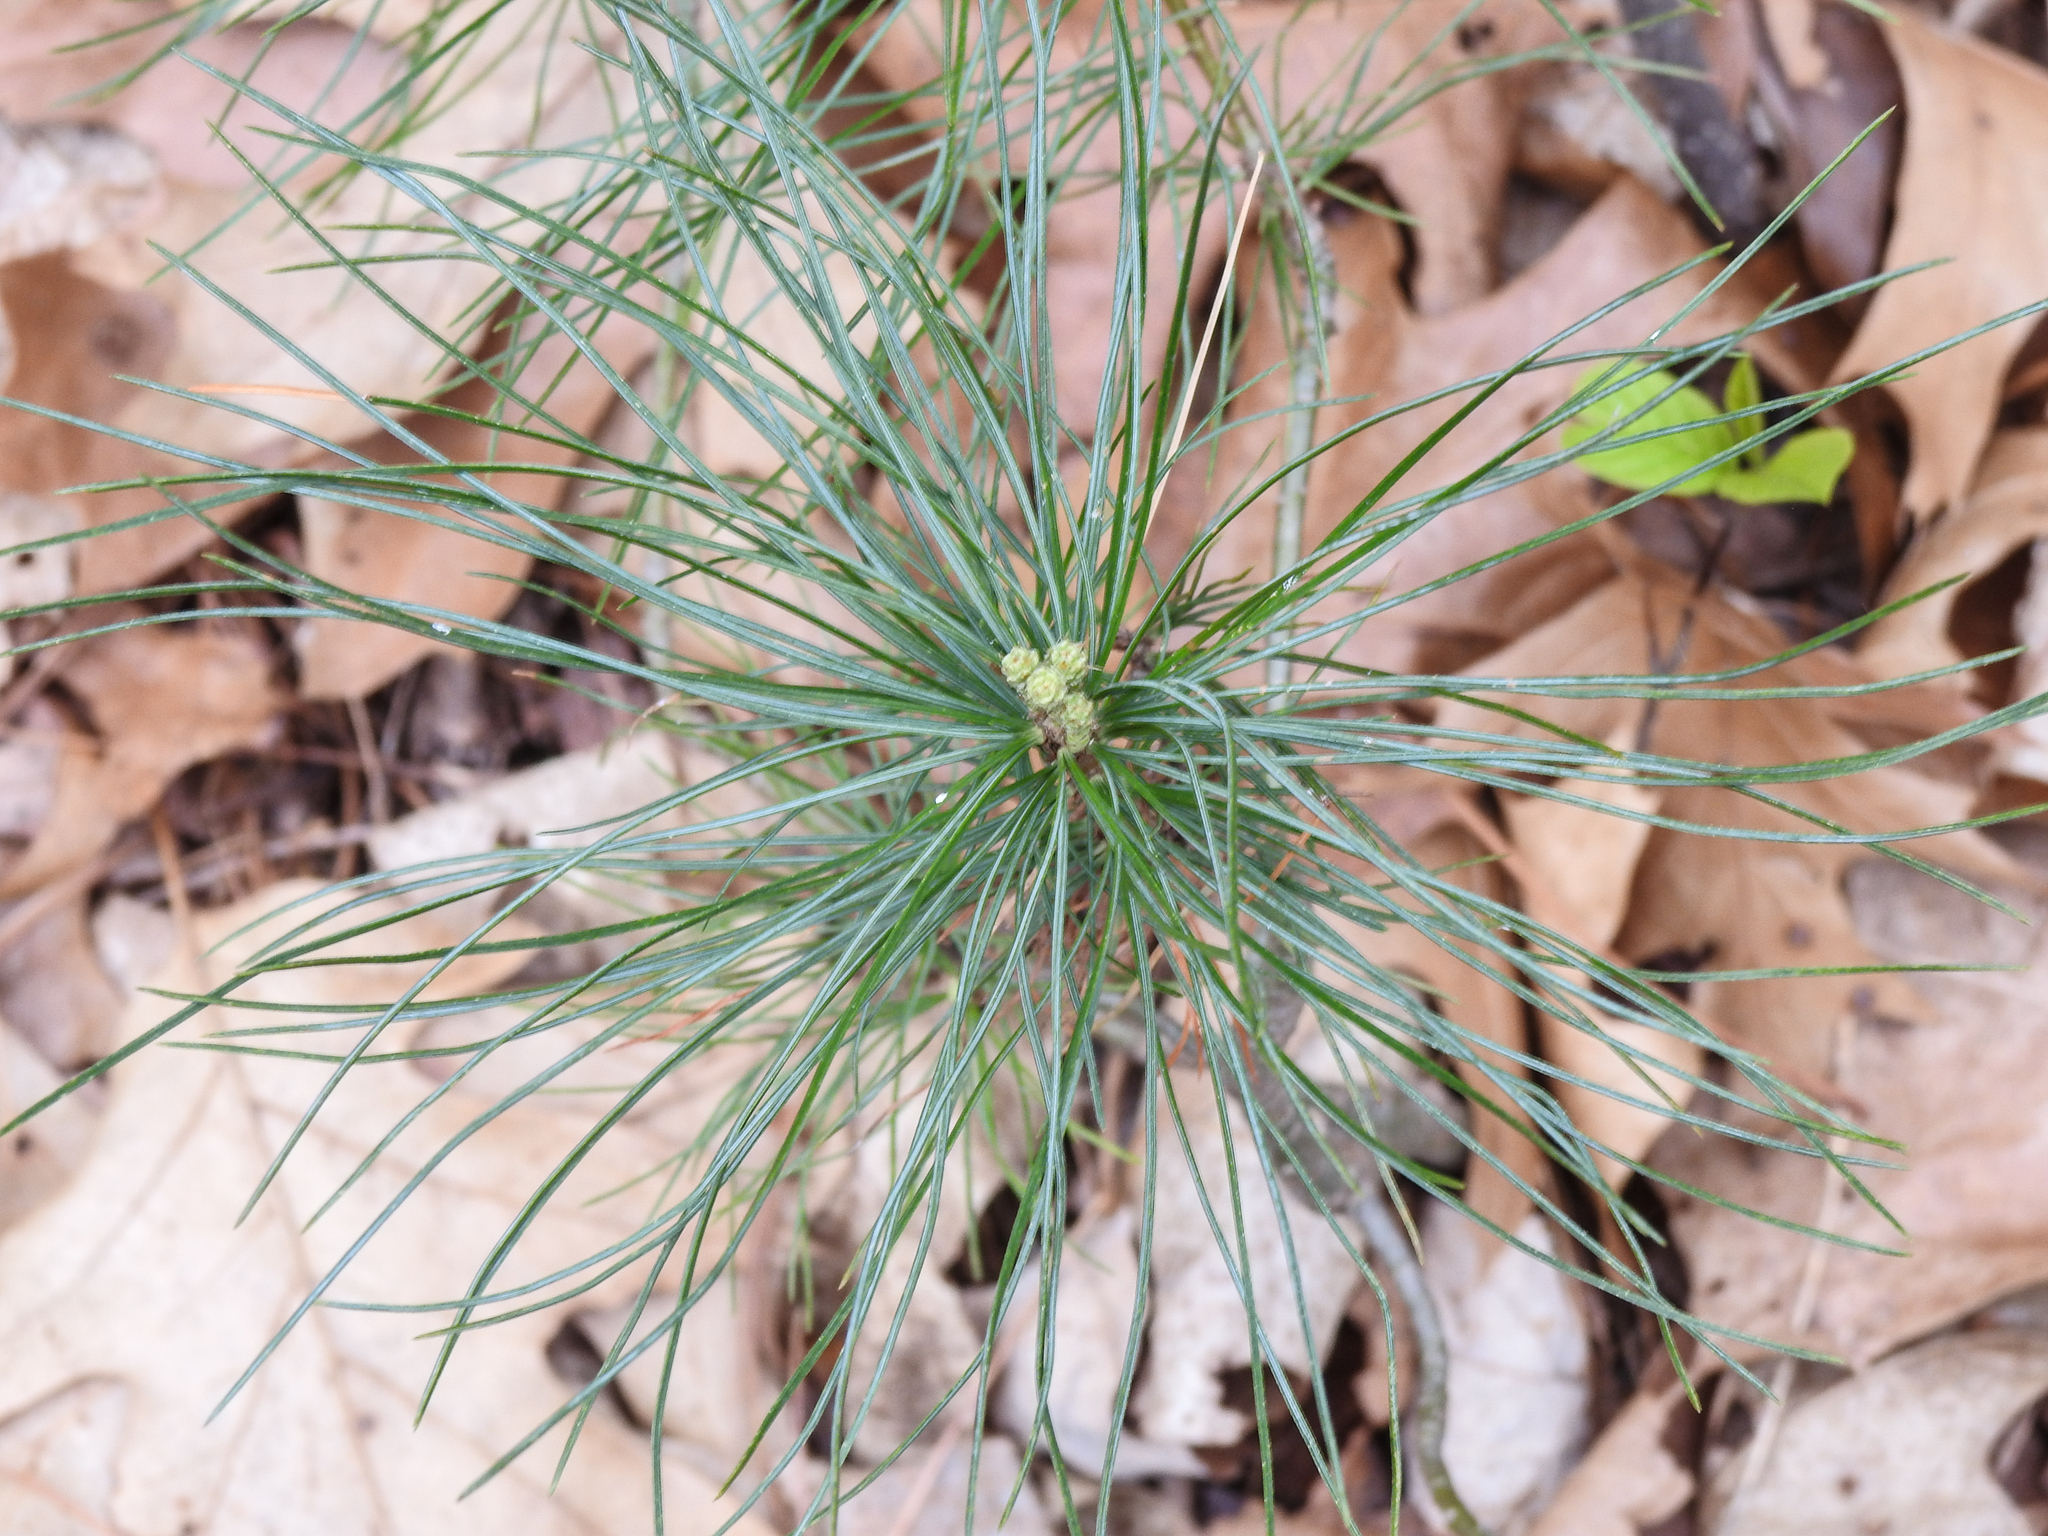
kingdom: Plantae
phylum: Tracheophyta
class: Pinopsida
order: Pinales
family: Pinaceae
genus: Pinus
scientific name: Pinus strobus
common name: Weymouth pine
